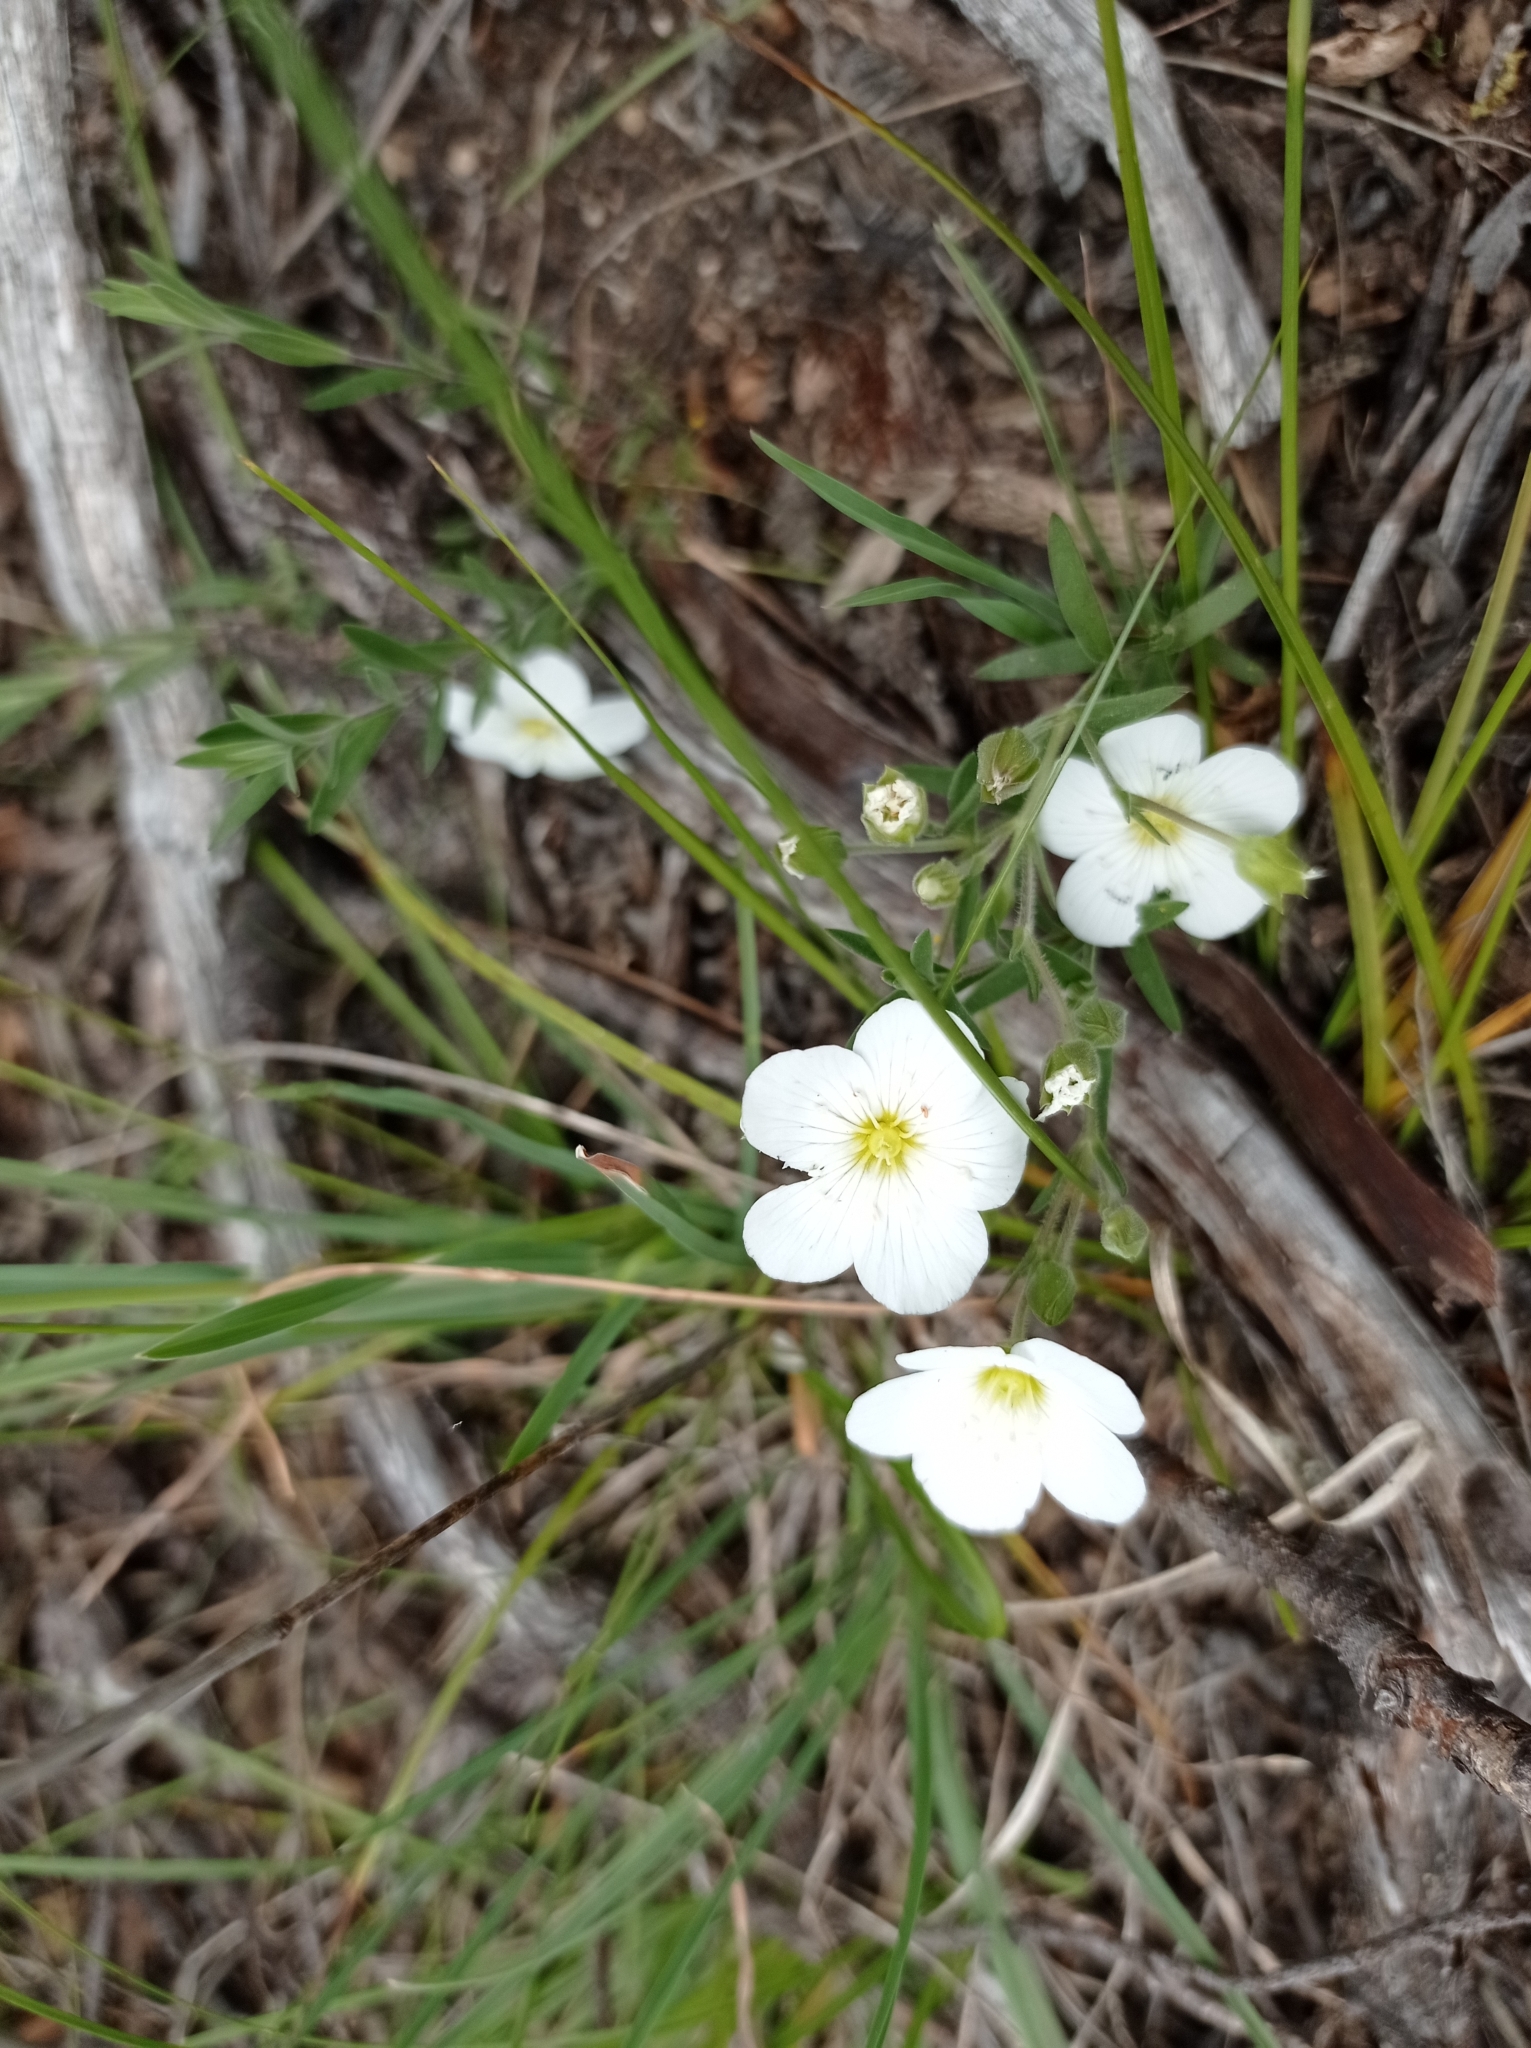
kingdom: Plantae
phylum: Tracheophyta
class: Magnoliopsida
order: Caryophyllales
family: Caryophyllaceae
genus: Arenaria
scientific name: Arenaria montana
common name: Mountain sandwort
